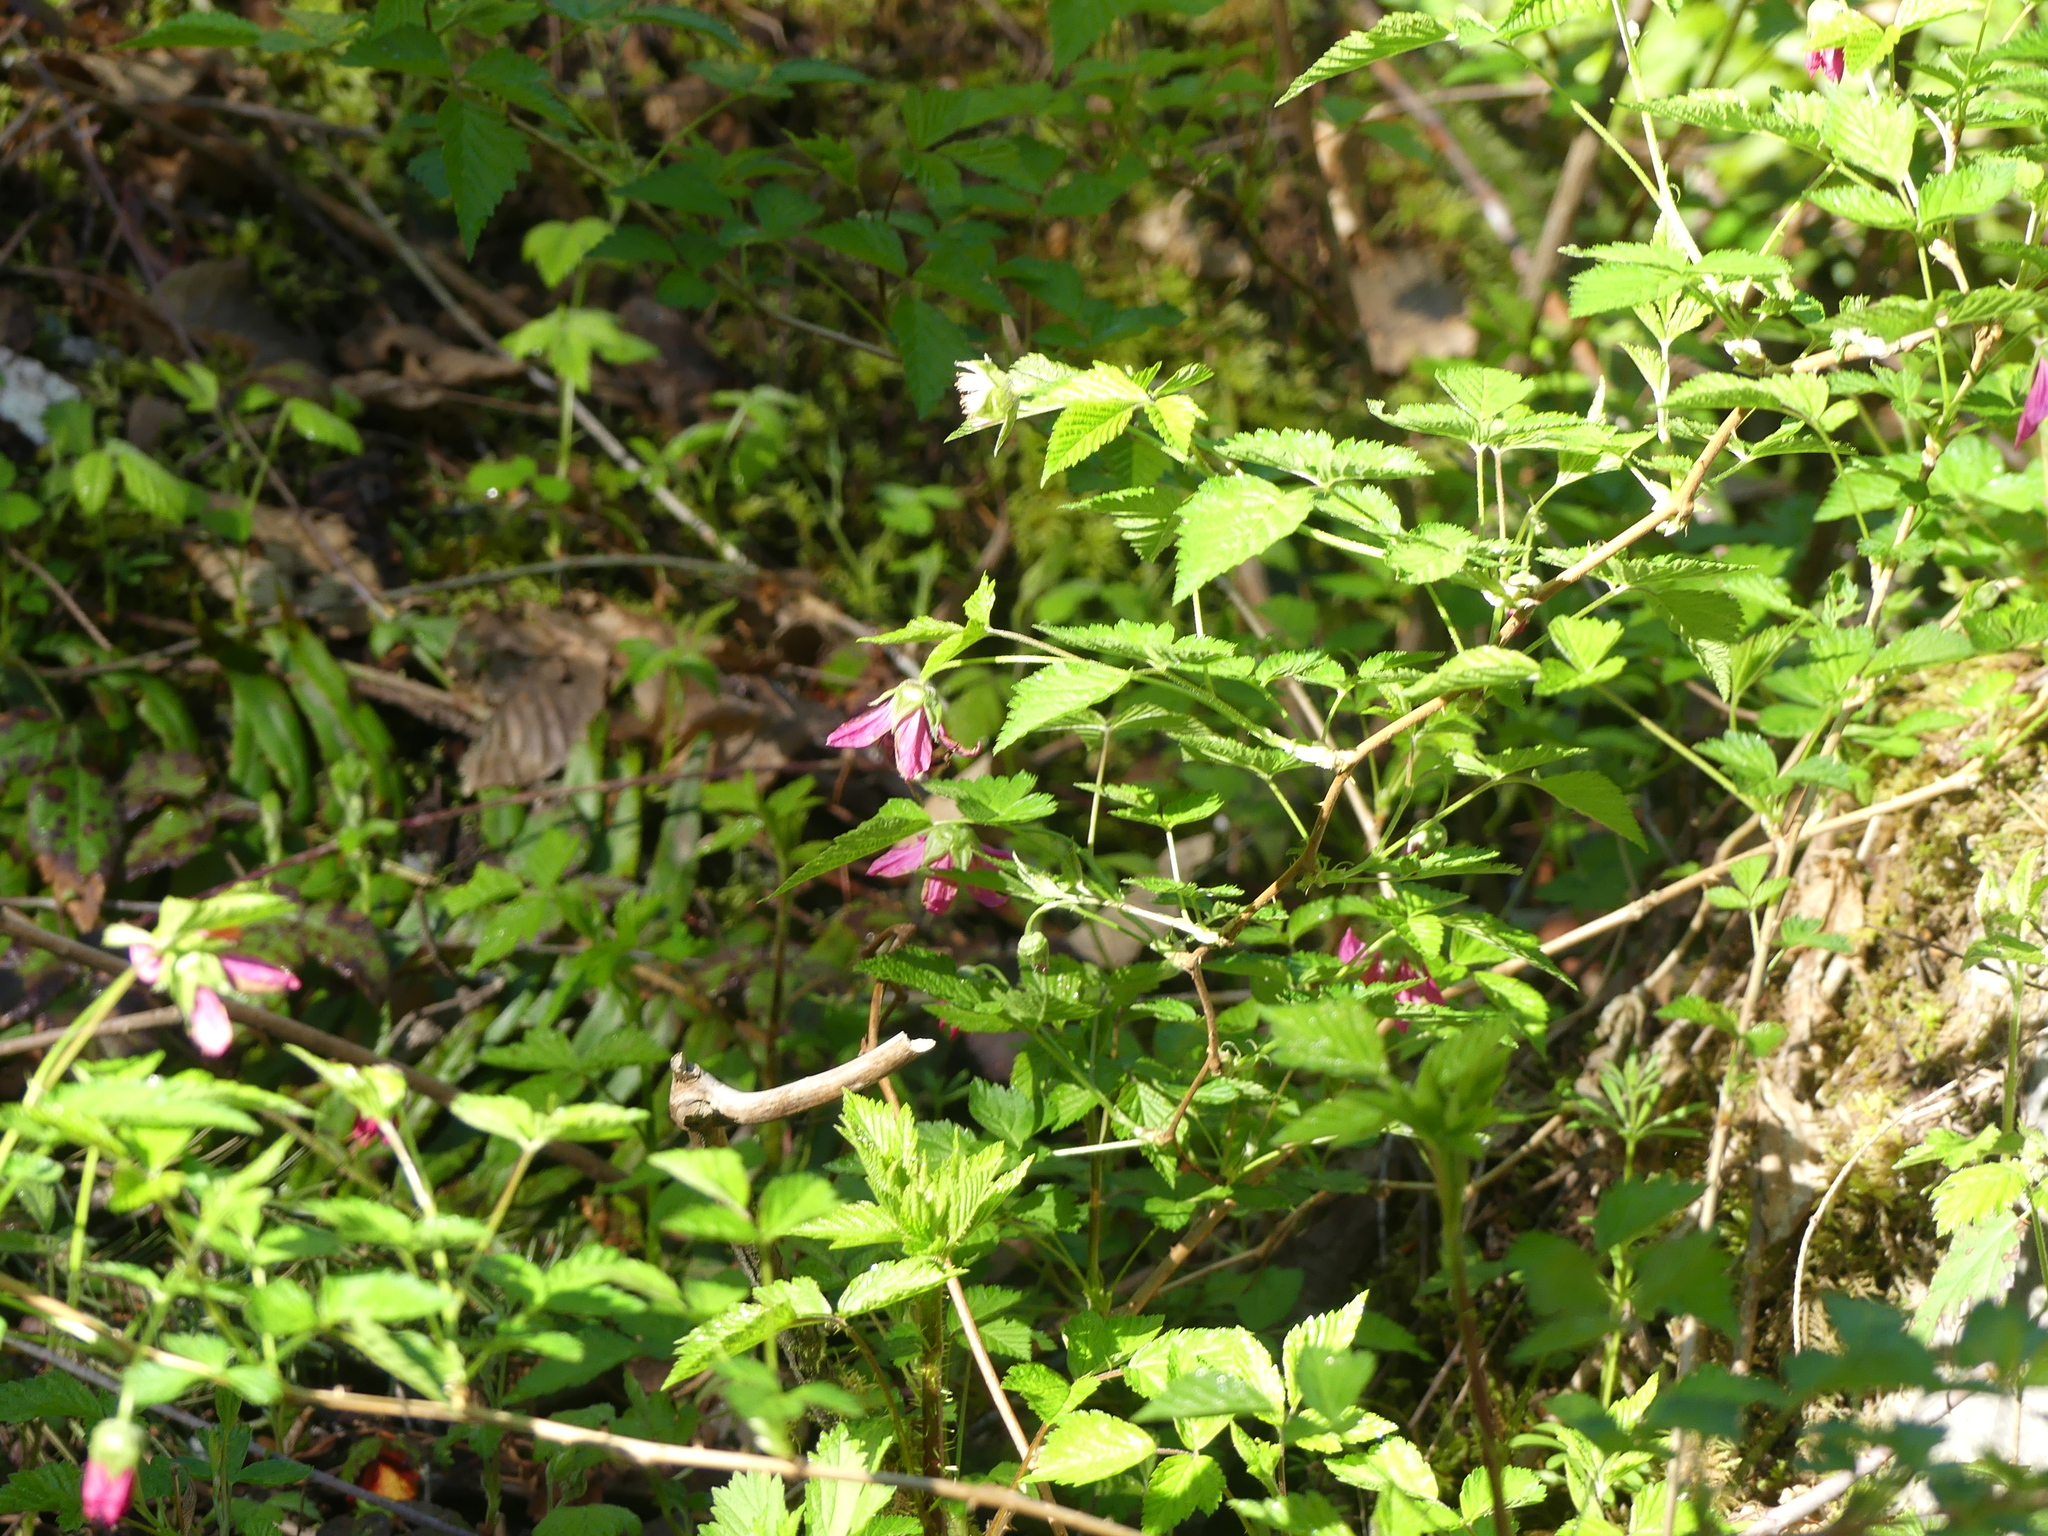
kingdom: Plantae
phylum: Tracheophyta
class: Magnoliopsida
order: Rosales
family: Rosaceae
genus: Rubus
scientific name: Rubus spectabilis
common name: Salmonberry
